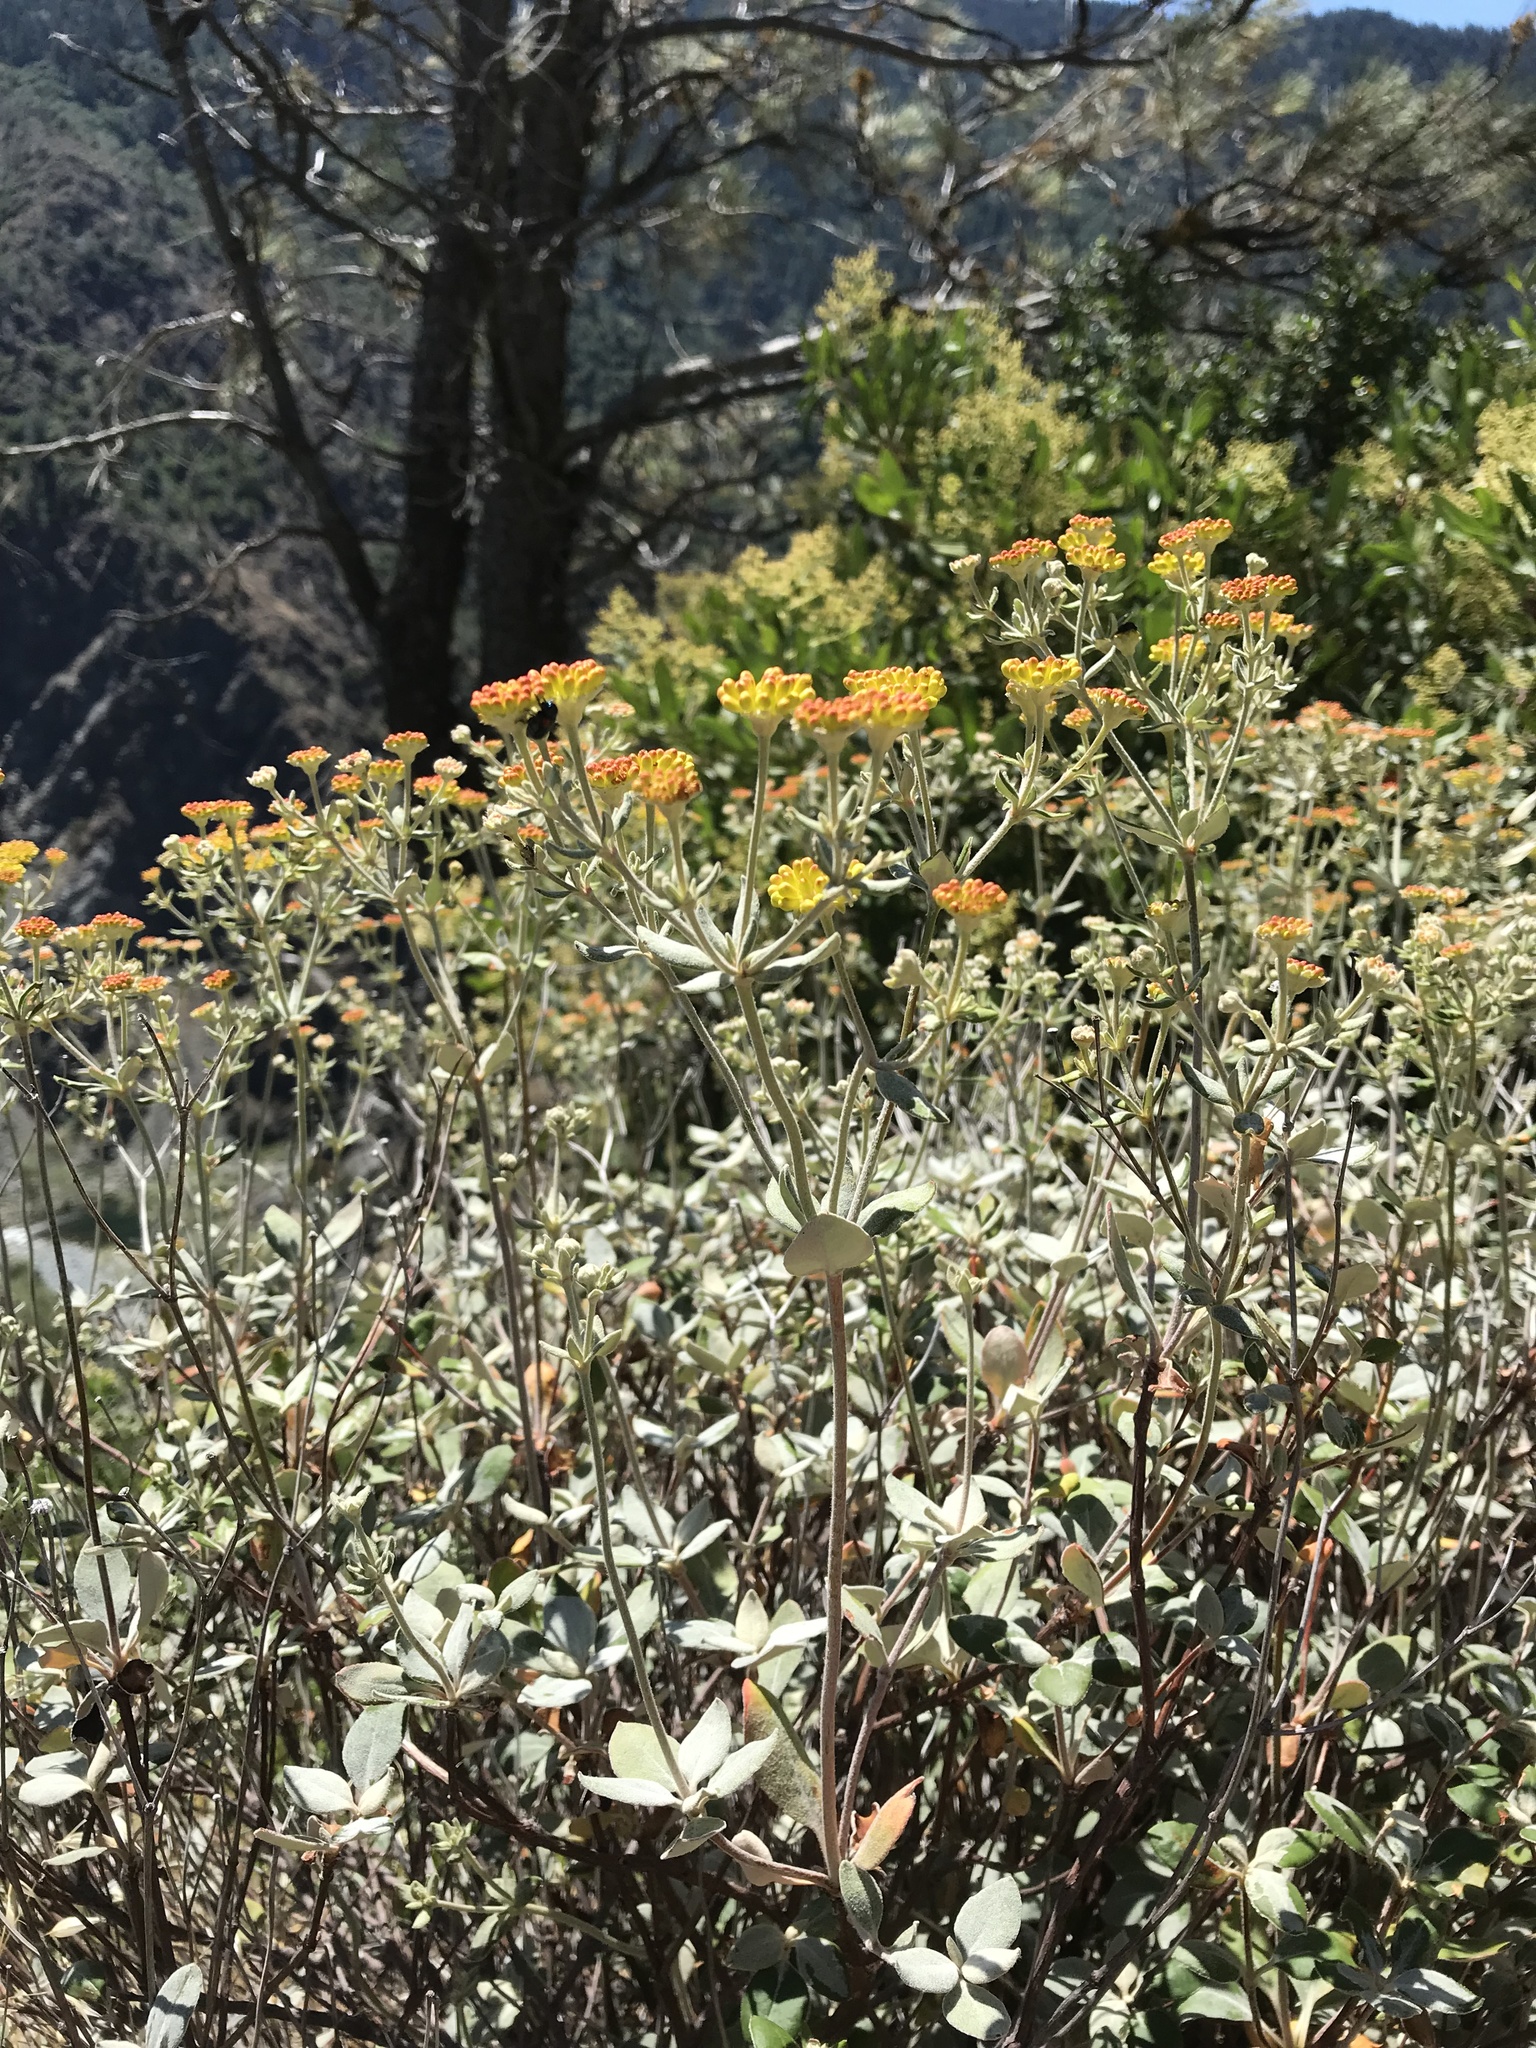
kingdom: Plantae
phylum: Tracheophyta
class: Magnoliopsida
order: Caryophyllales
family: Polygonaceae
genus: Eriogonum
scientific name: Eriogonum umbellatum
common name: Sulfur-buckwheat
